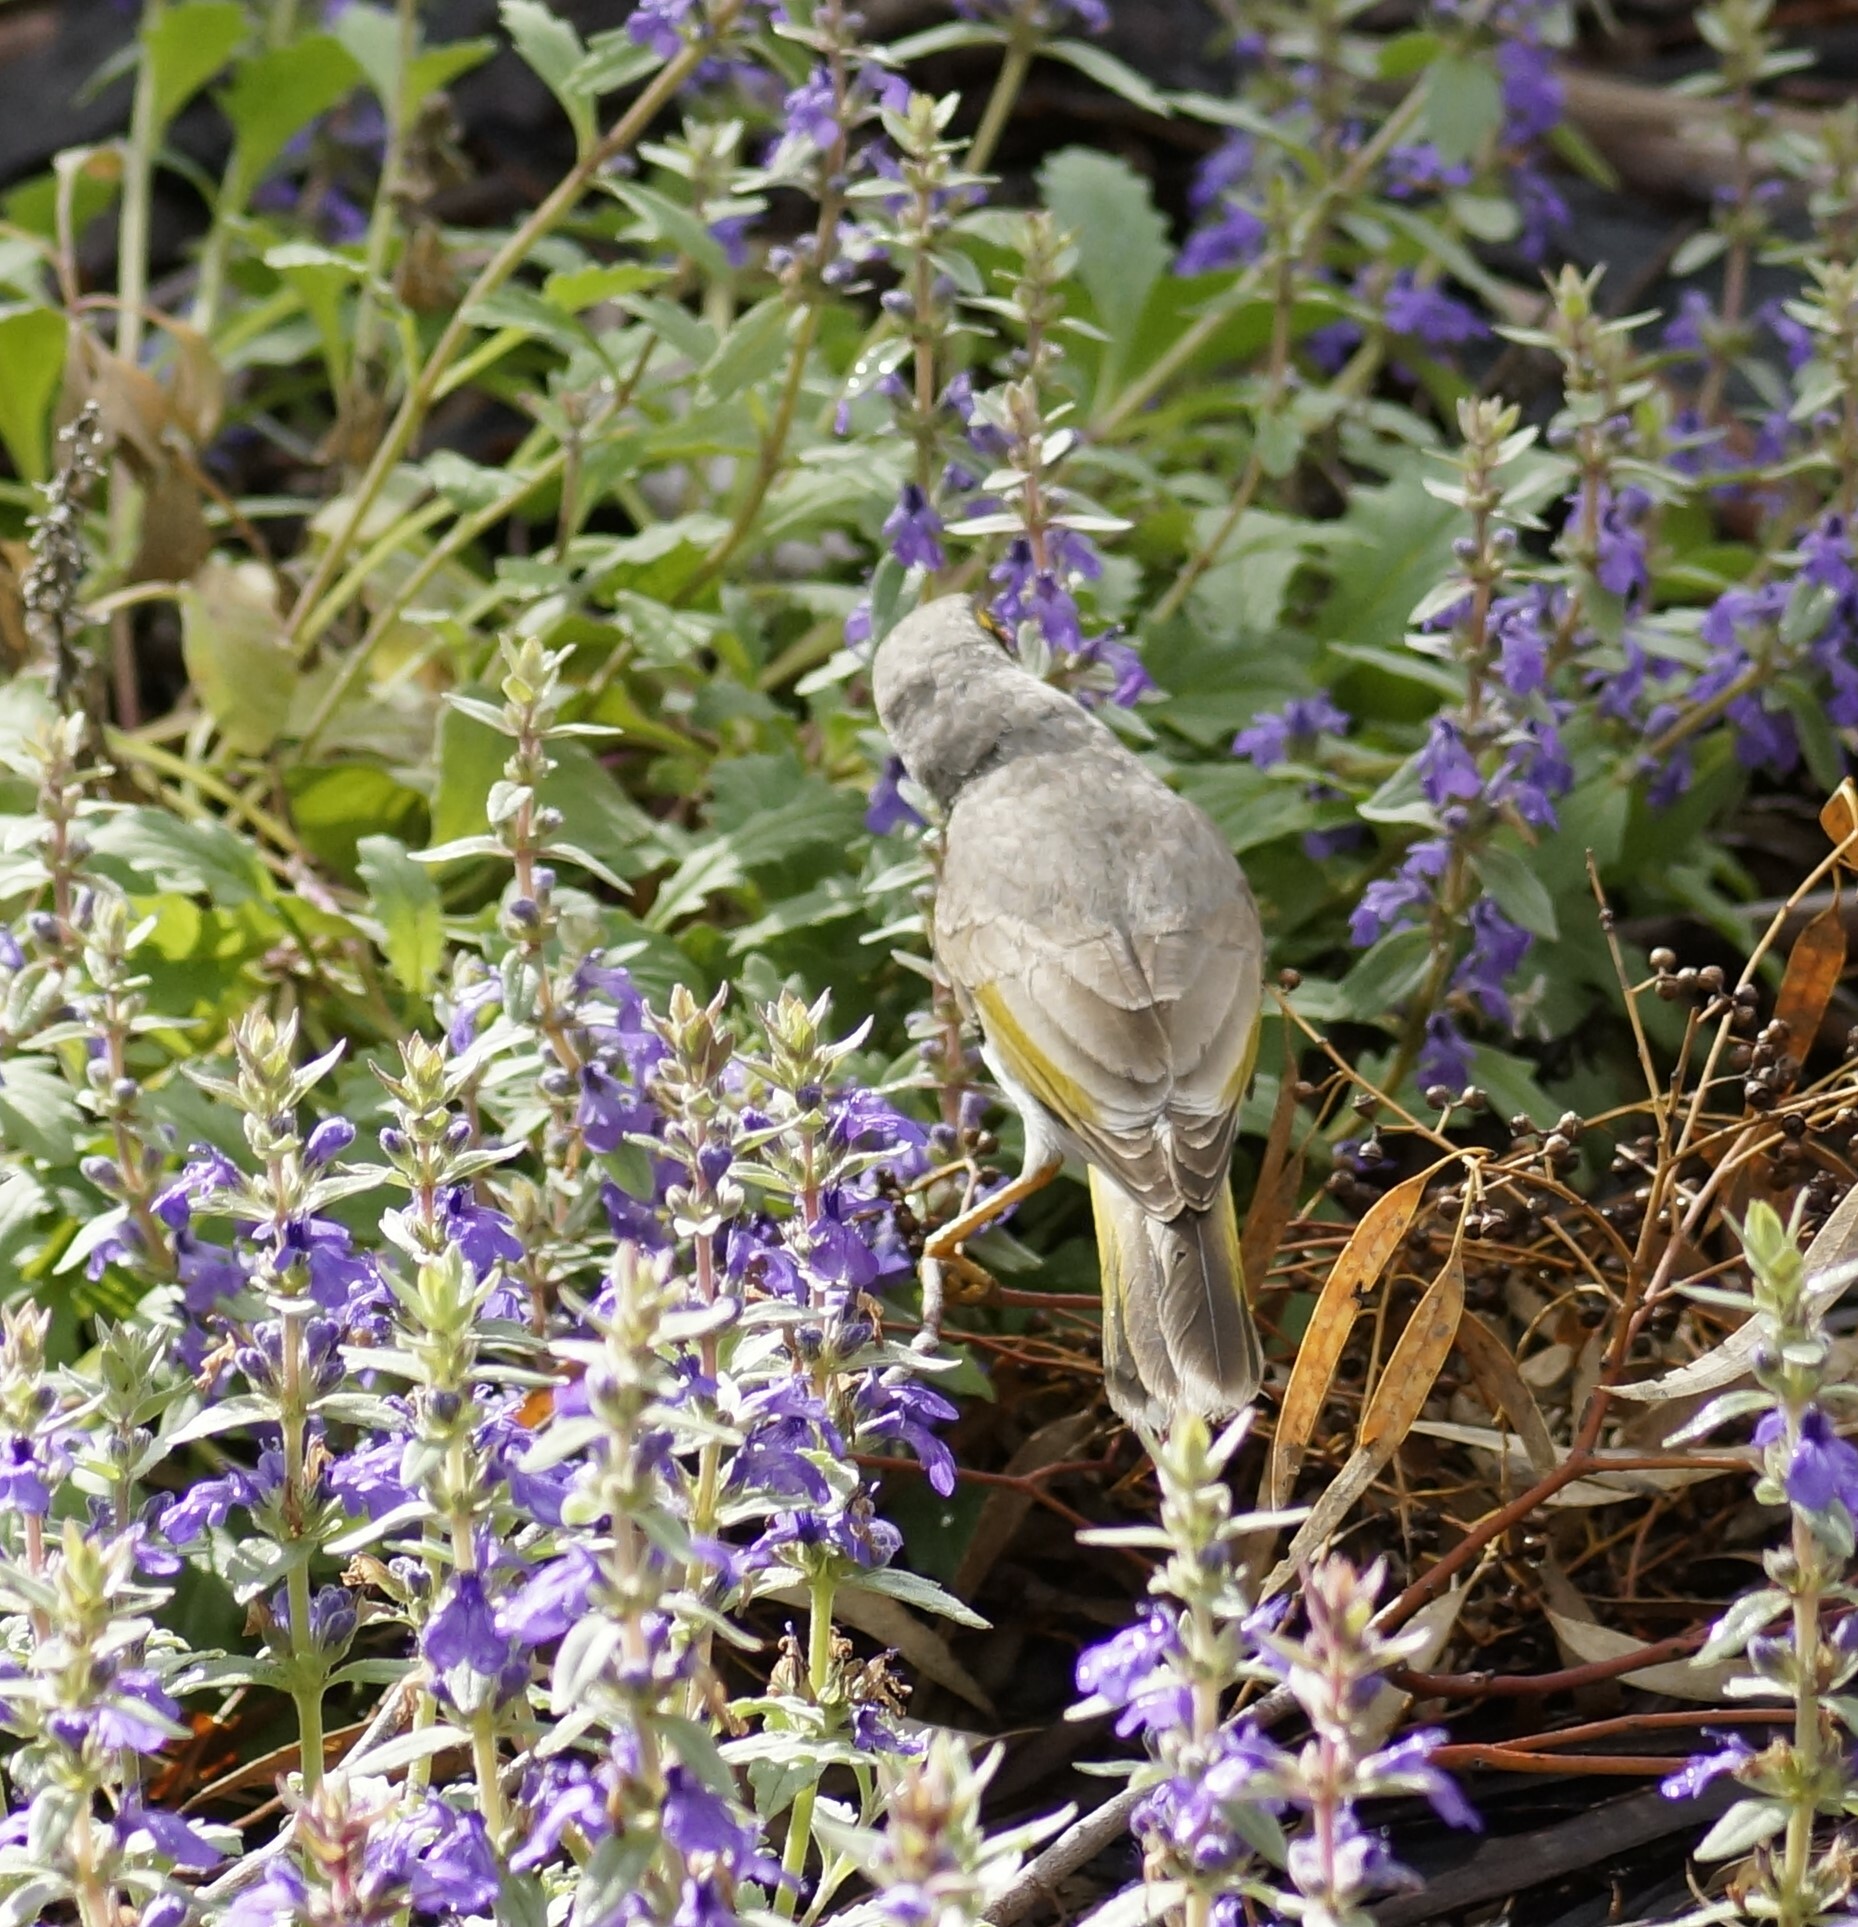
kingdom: Animalia
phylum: Chordata
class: Aves
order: Passeriformes
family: Meliphagidae
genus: Manorina
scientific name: Manorina flavigula
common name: Yellow-throated miner
